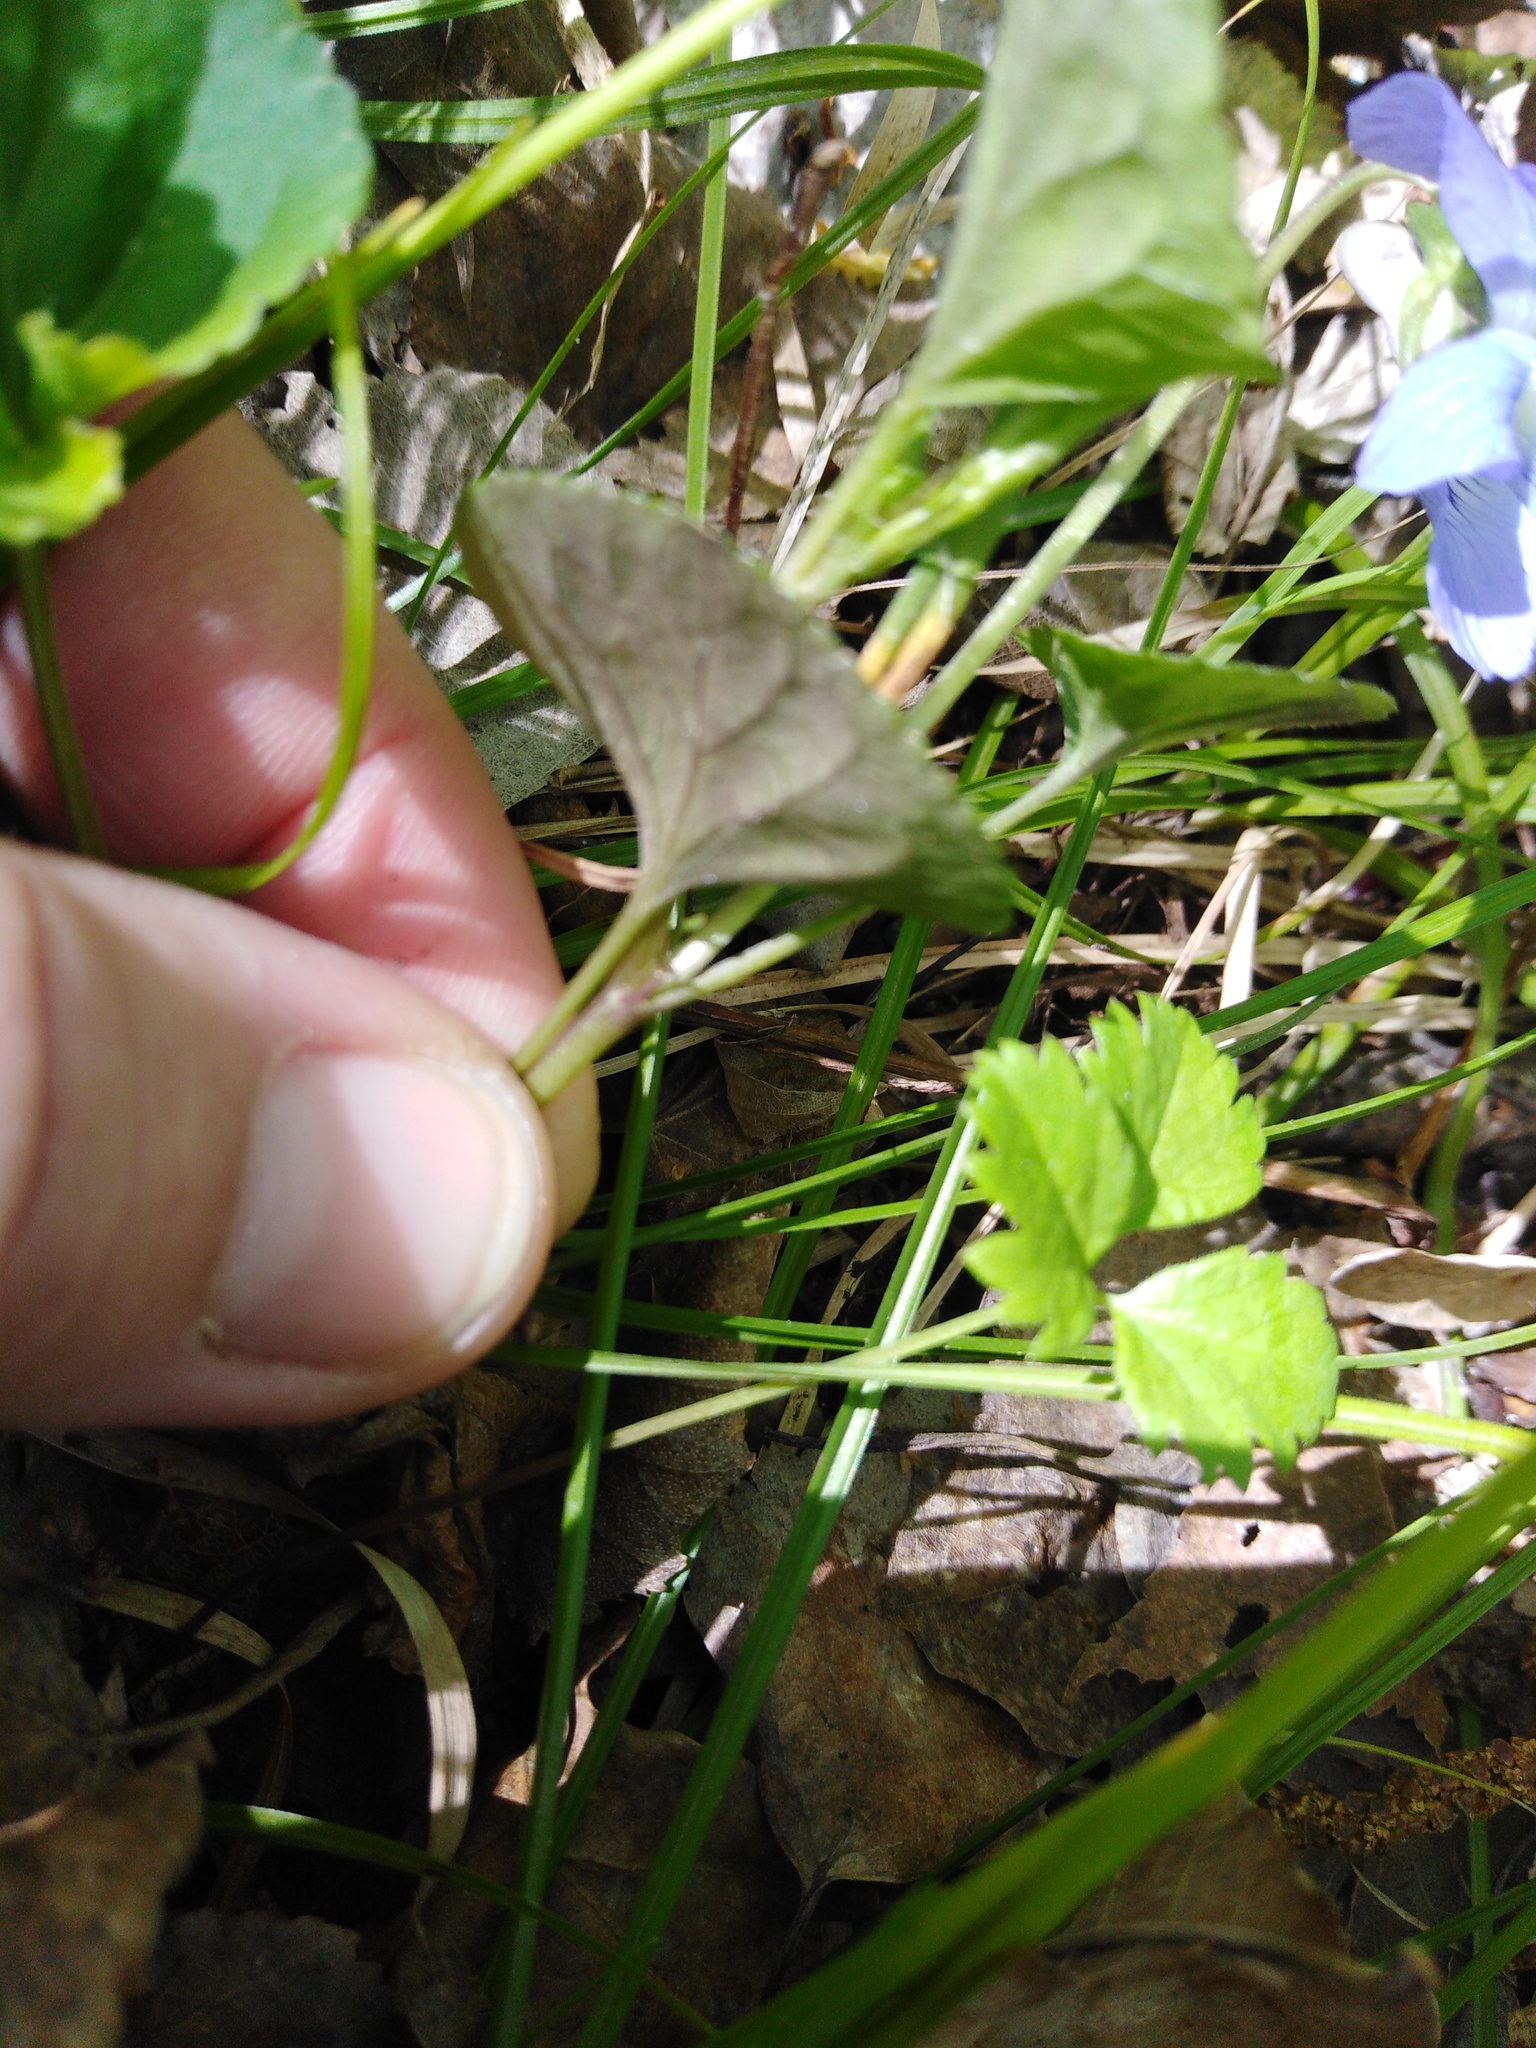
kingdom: Plantae
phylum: Tracheophyta
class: Magnoliopsida
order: Malpighiales
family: Violaceae
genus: Viola
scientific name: Viola riviniana
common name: Common dog-violet
